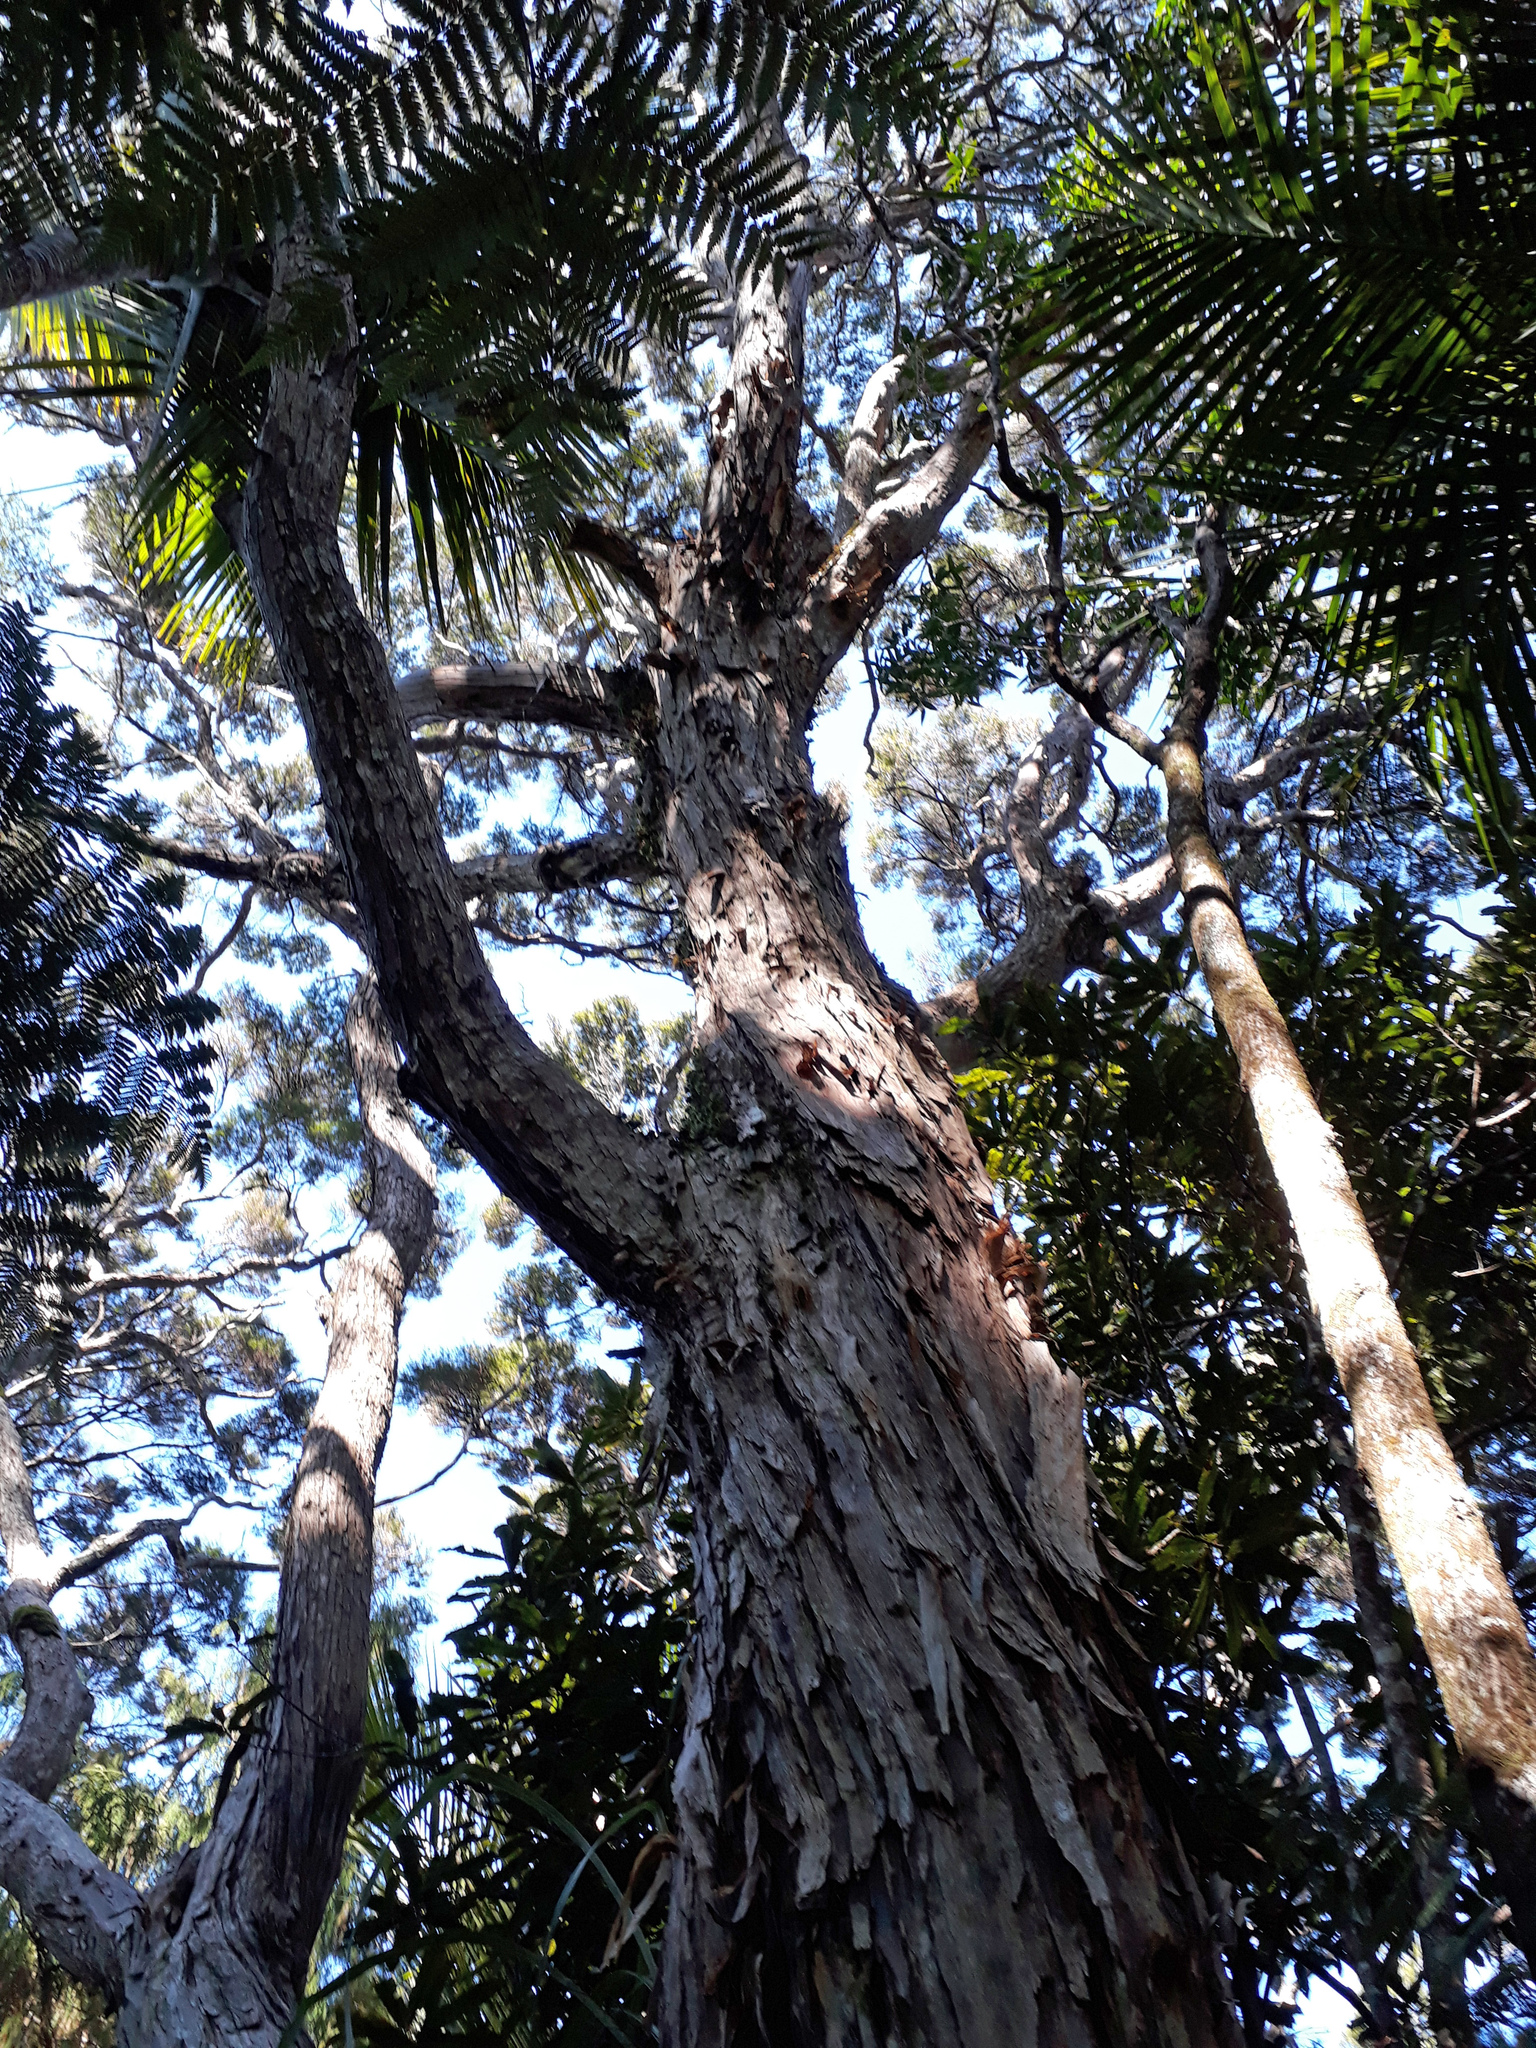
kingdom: Plantae
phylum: Tracheophyta
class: Magnoliopsida
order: Myrtales
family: Myrtaceae
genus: Kunzea
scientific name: Kunzea robusta
